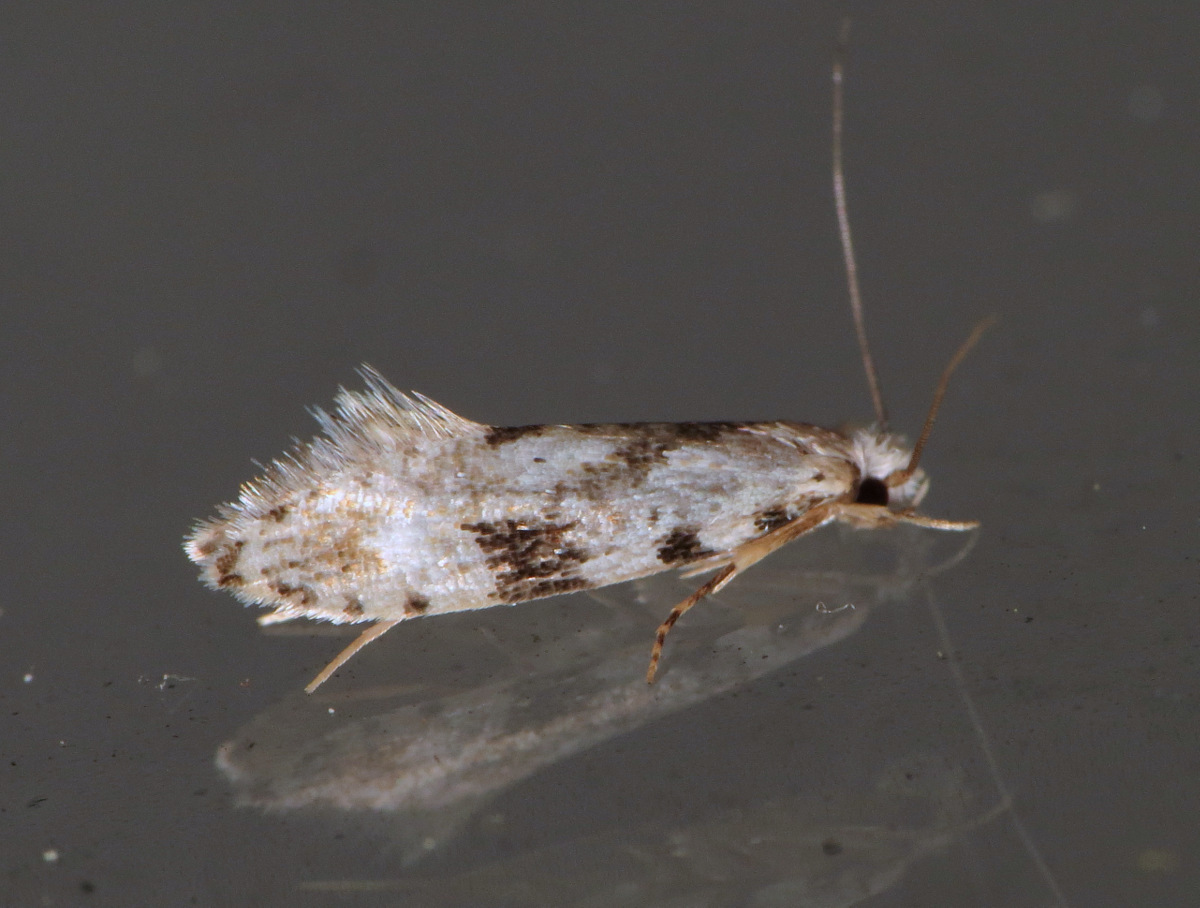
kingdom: Animalia
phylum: Arthropoda
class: Insecta
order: Lepidoptera
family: Tineidae
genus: Nemapogon
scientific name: Nemapogon auropulvella
